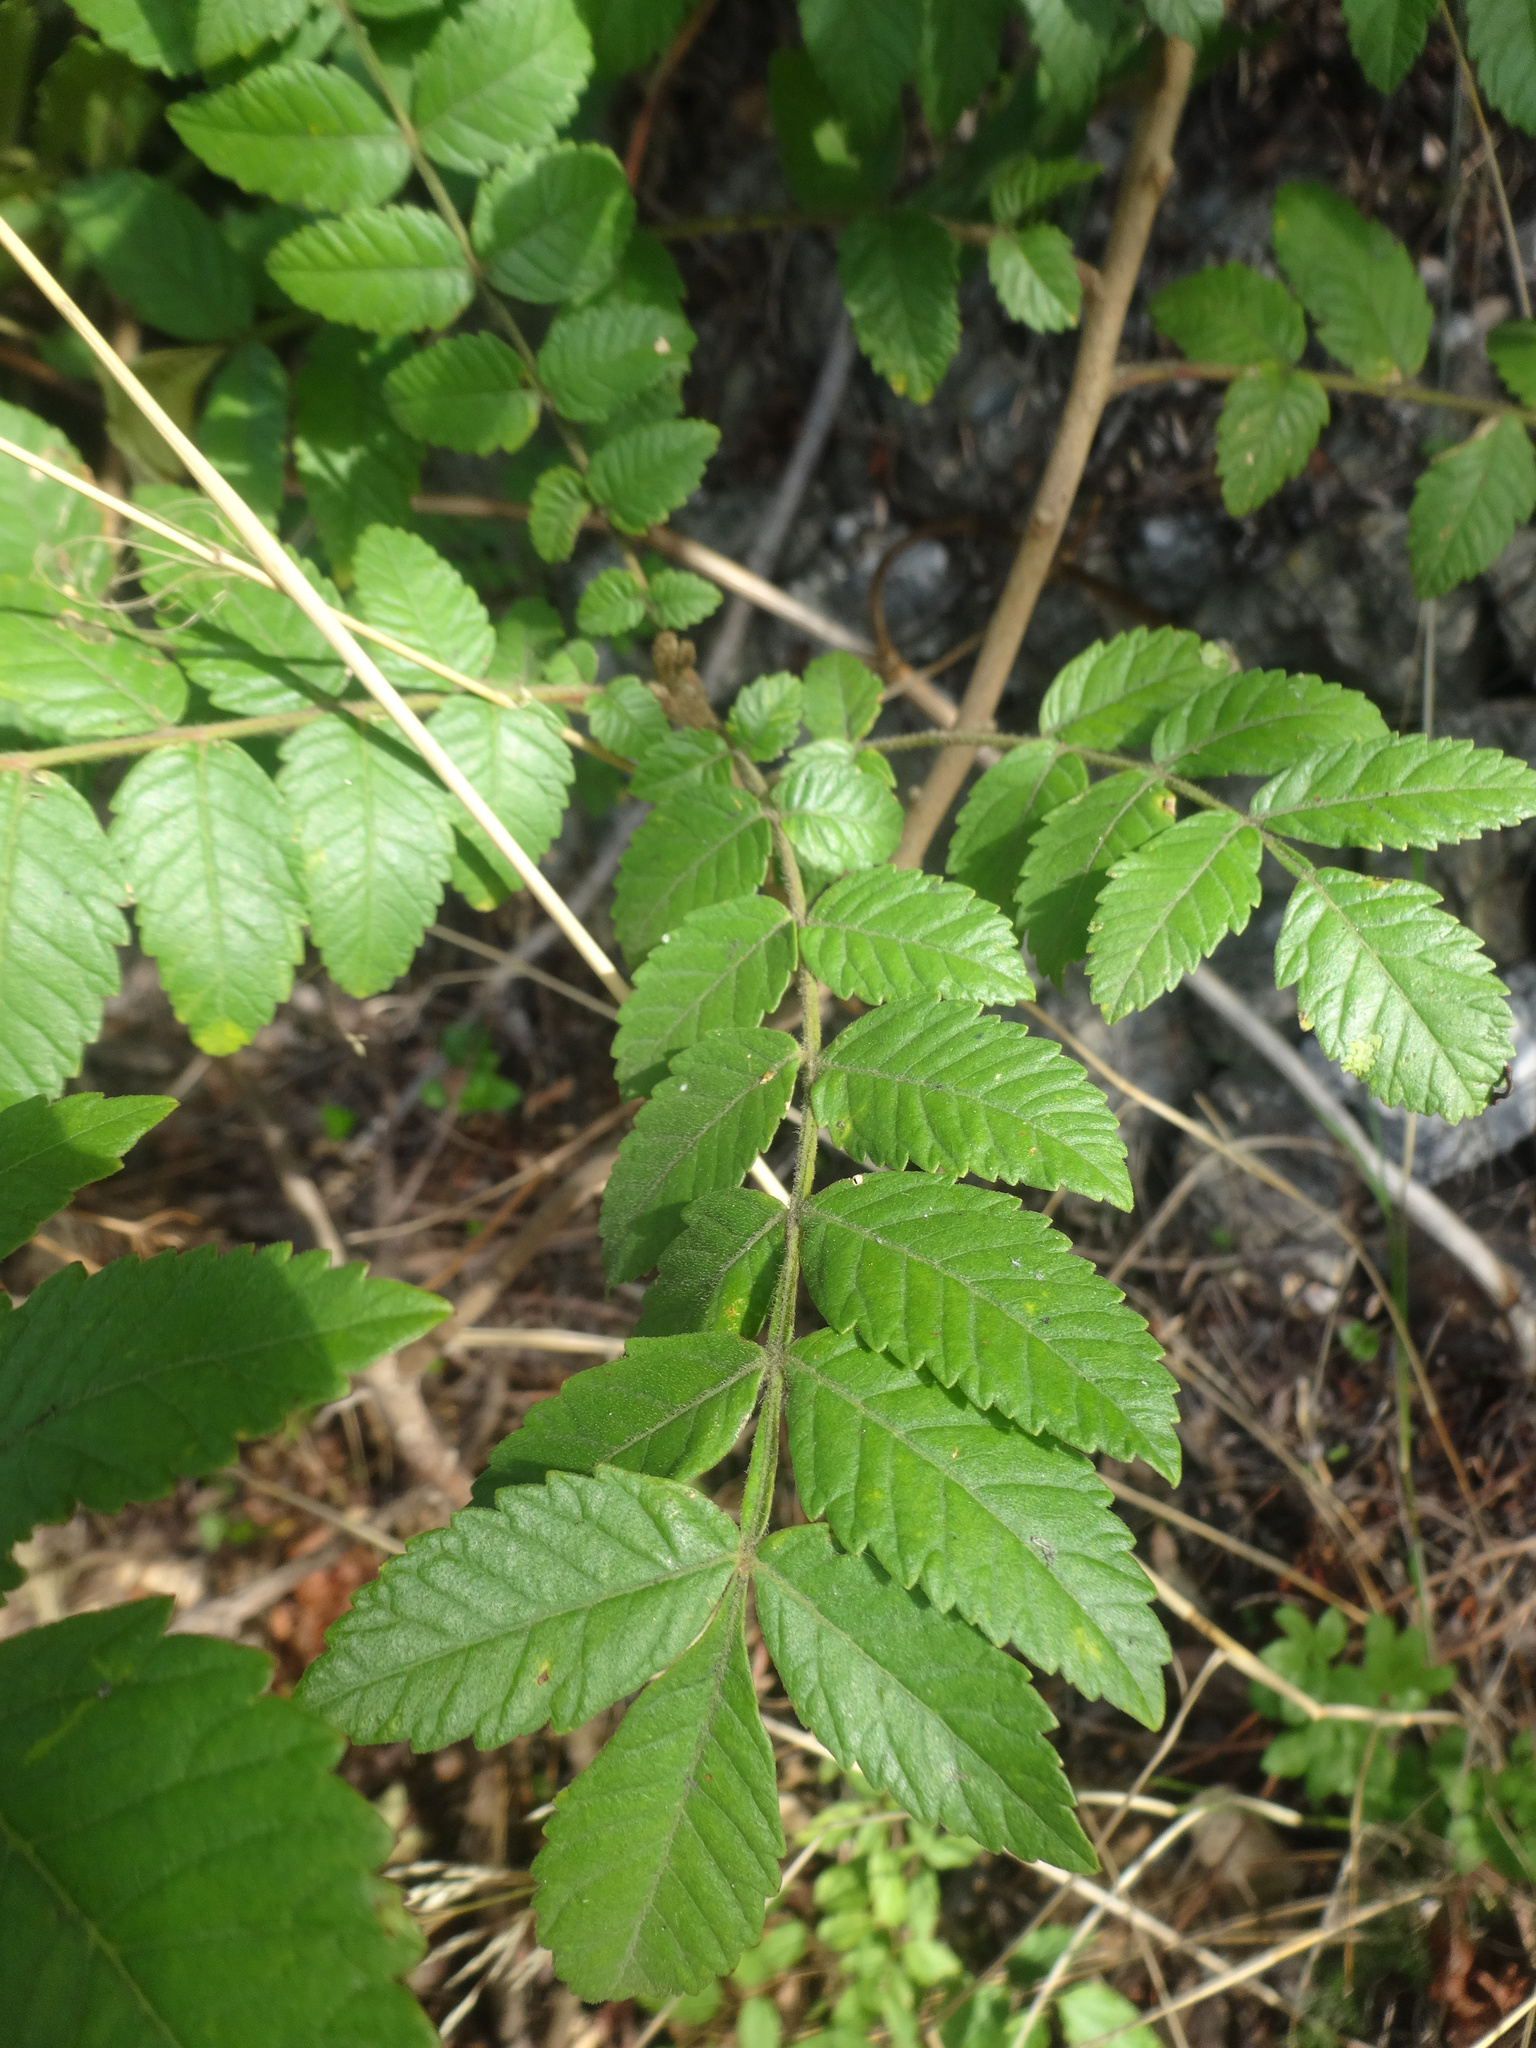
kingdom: Plantae
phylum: Tracheophyta
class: Magnoliopsida
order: Rosales
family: Rosaceae
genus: Sorbus
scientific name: Sorbus aucuparia
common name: Rowan
